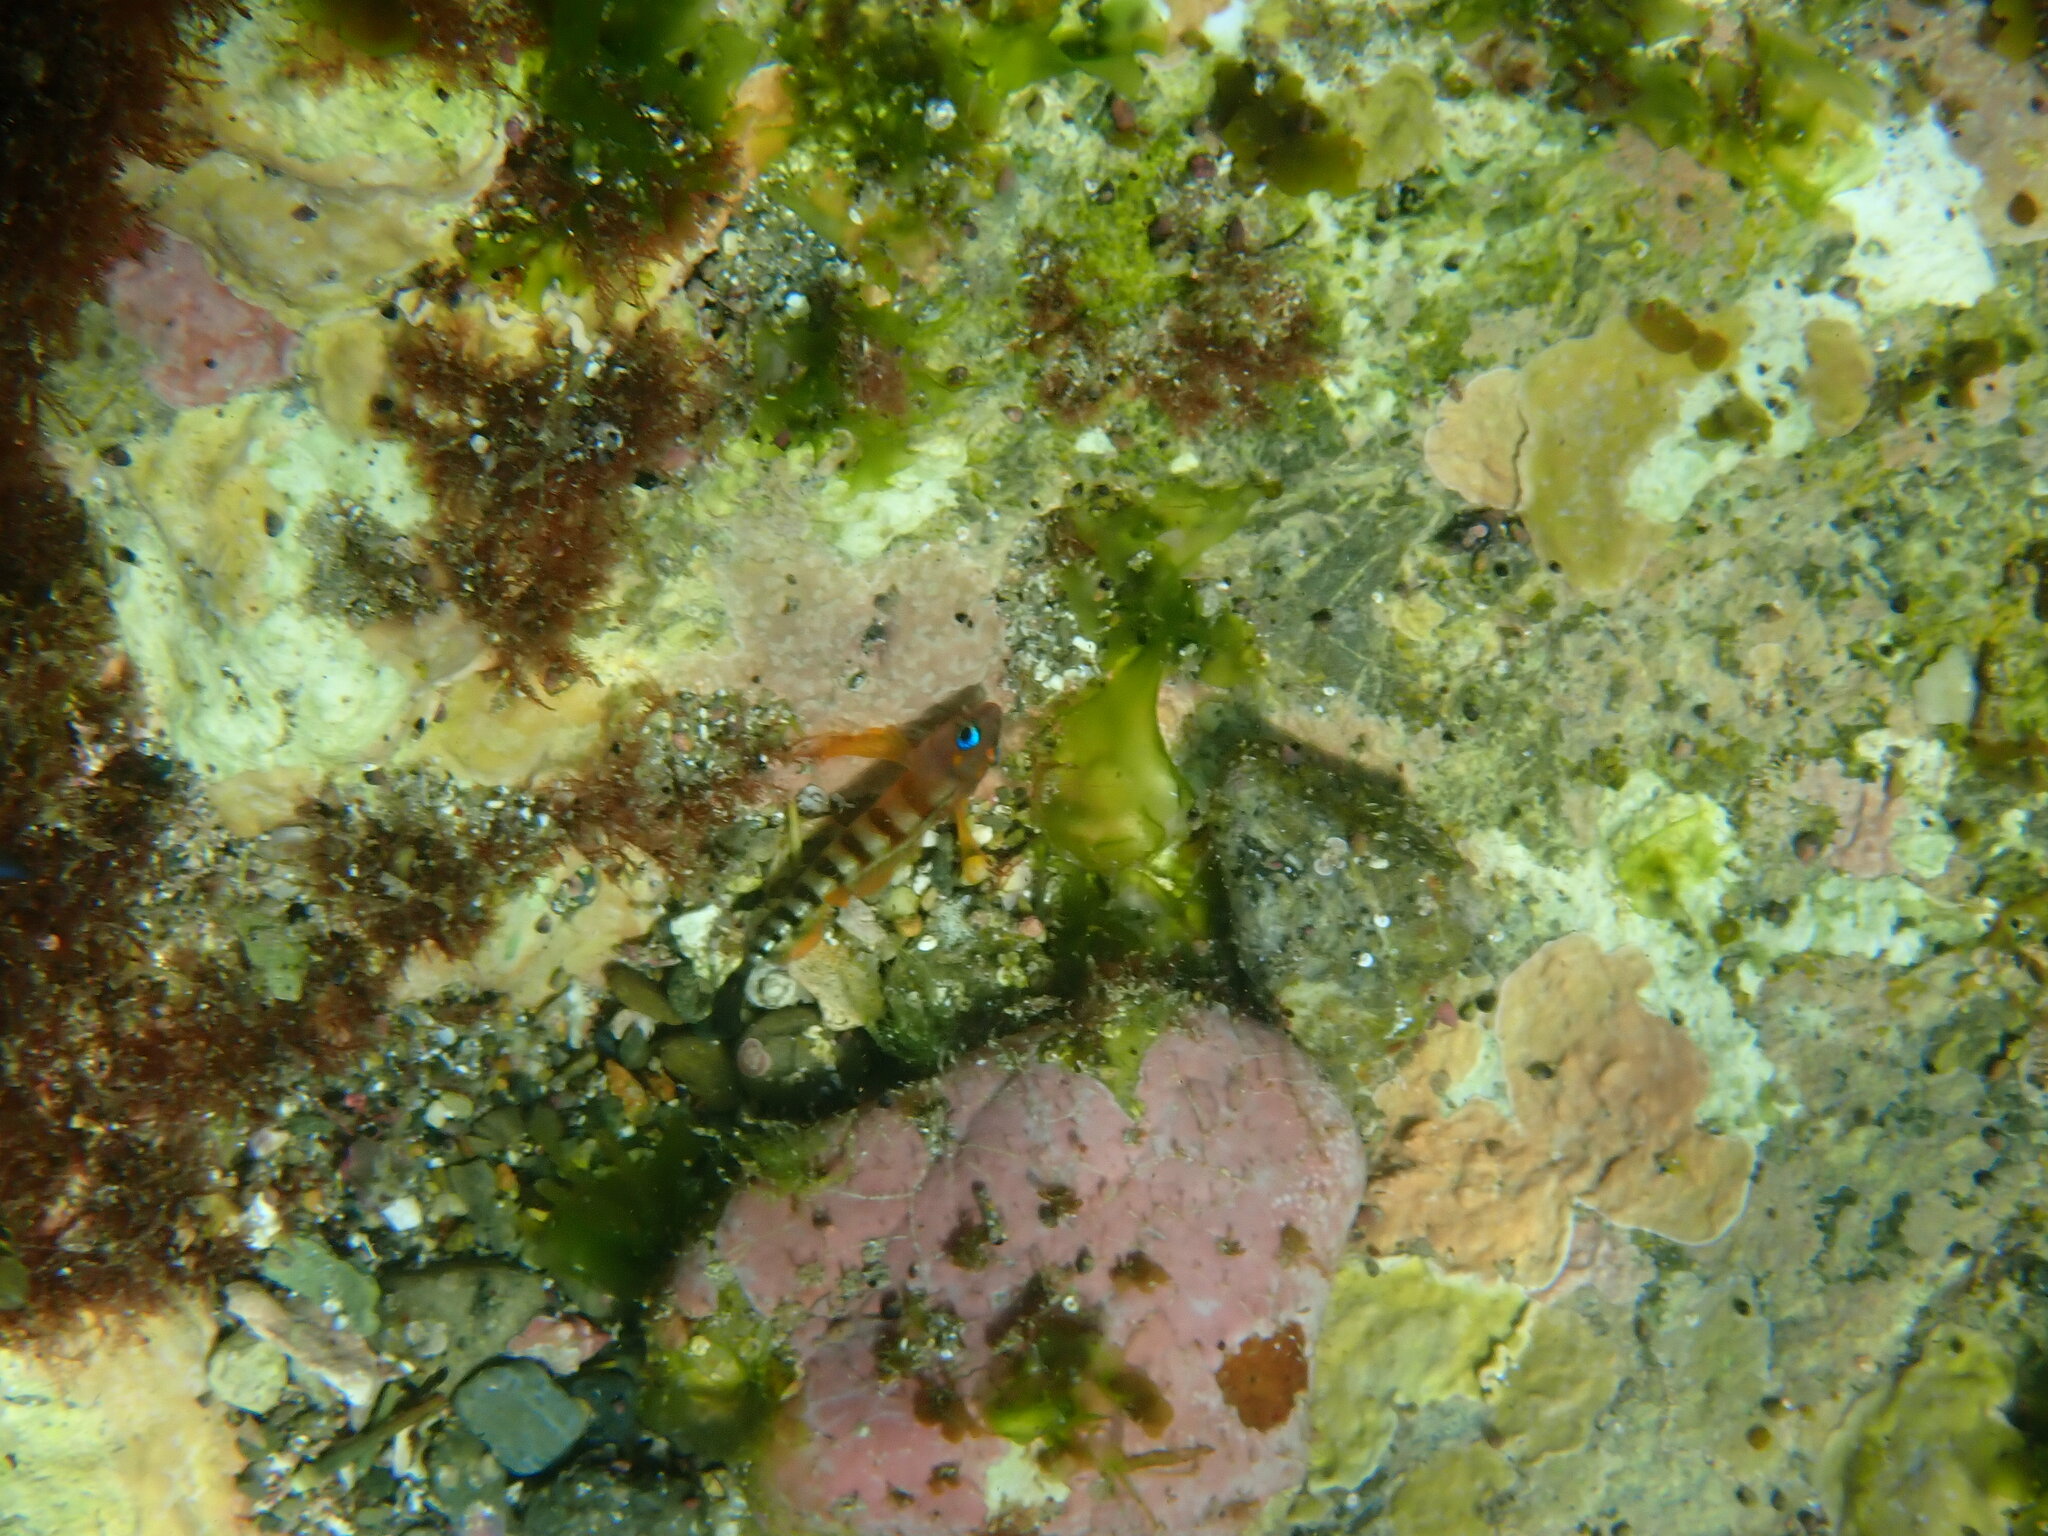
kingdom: Animalia
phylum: Chordata
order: Perciformes
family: Tripterygiidae
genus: Notoclinops
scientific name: Notoclinops segmentatus
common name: Blue-eyed triplefin
